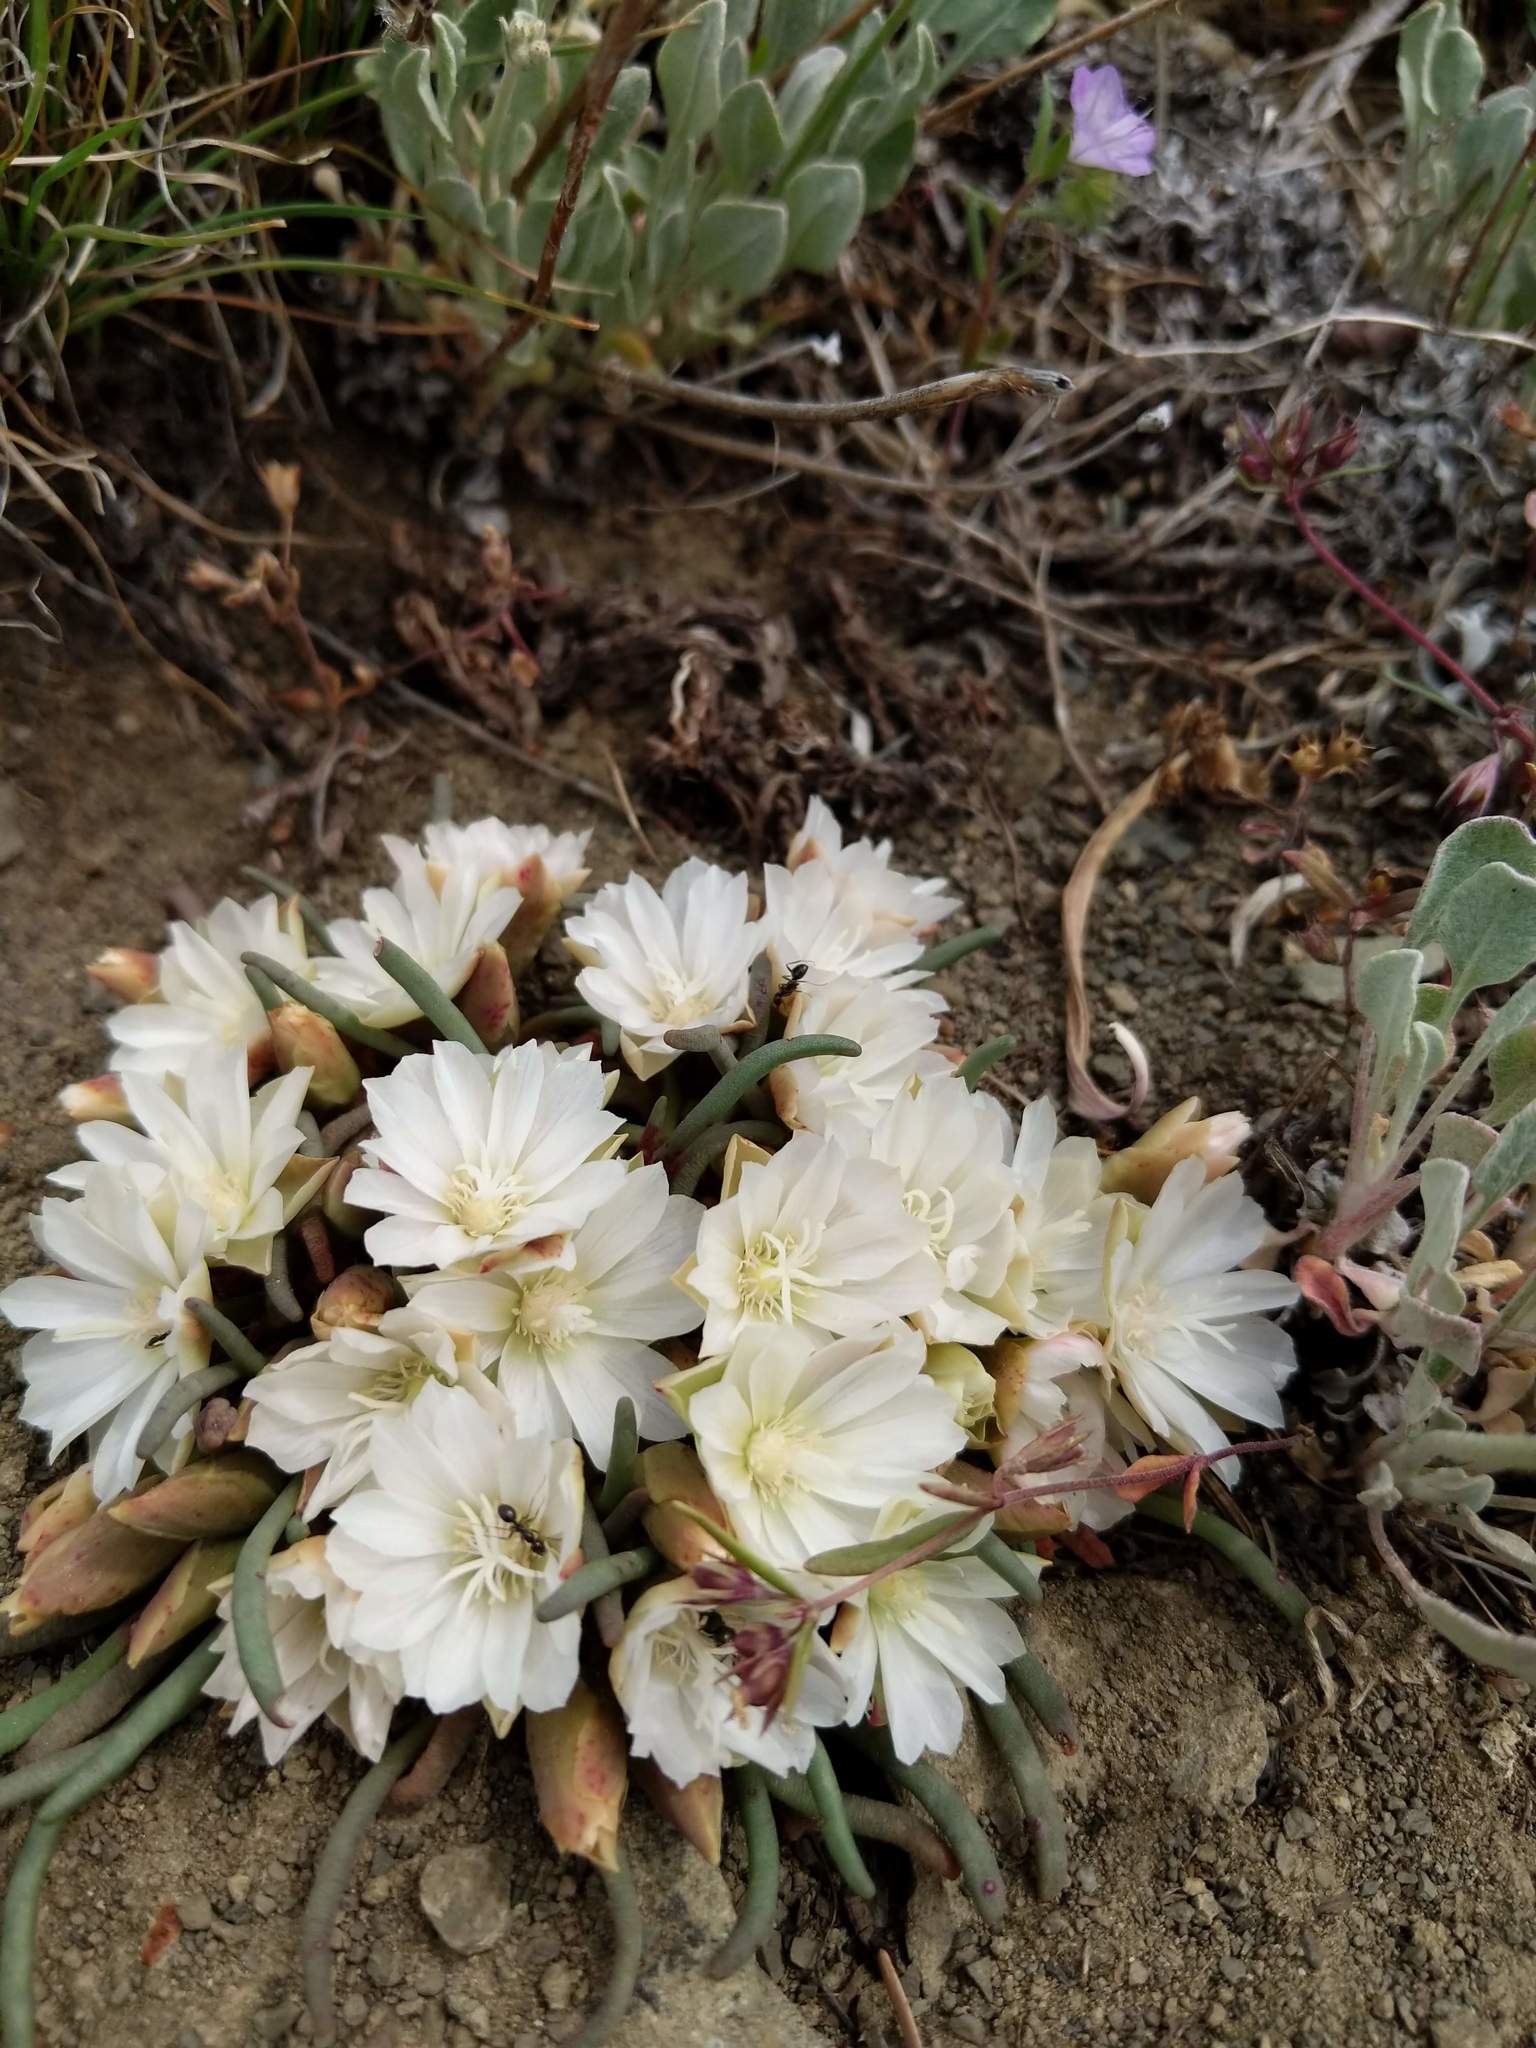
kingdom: Plantae
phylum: Tracheophyta
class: Magnoliopsida
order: Caryophyllales
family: Montiaceae
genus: Lewisia
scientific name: Lewisia rediviva
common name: Bitter-root
